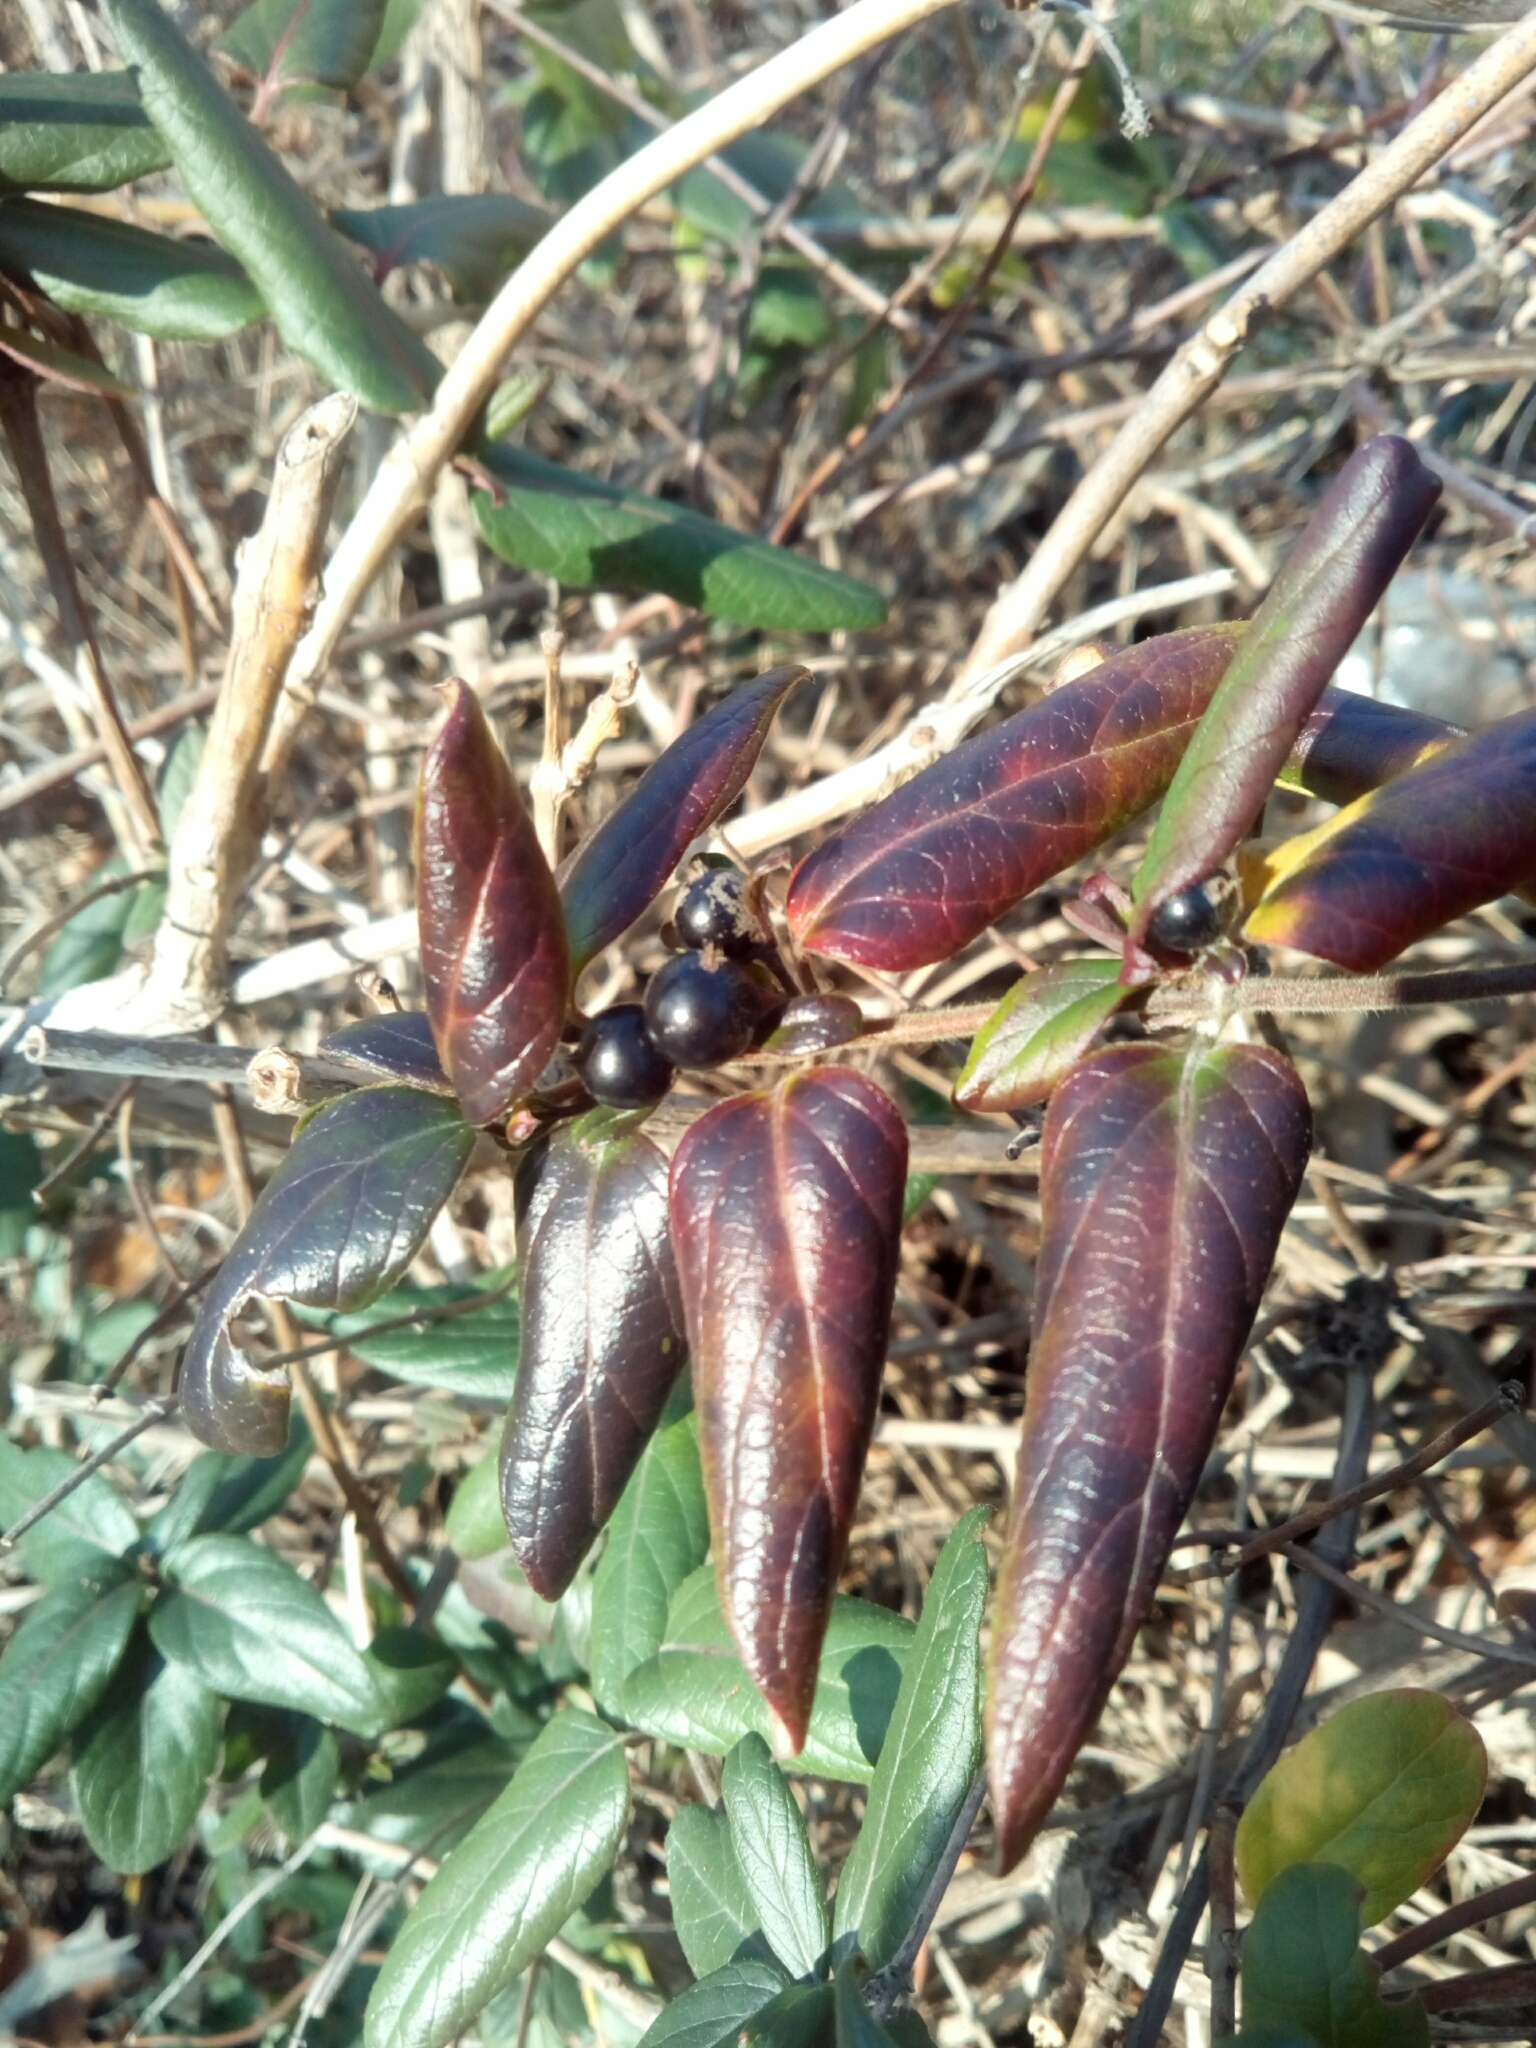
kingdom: Plantae
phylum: Tracheophyta
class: Magnoliopsida
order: Dipsacales
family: Caprifoliaceae
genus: Lonicera
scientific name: Lonicera japonica
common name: Japanese honeysuckle
